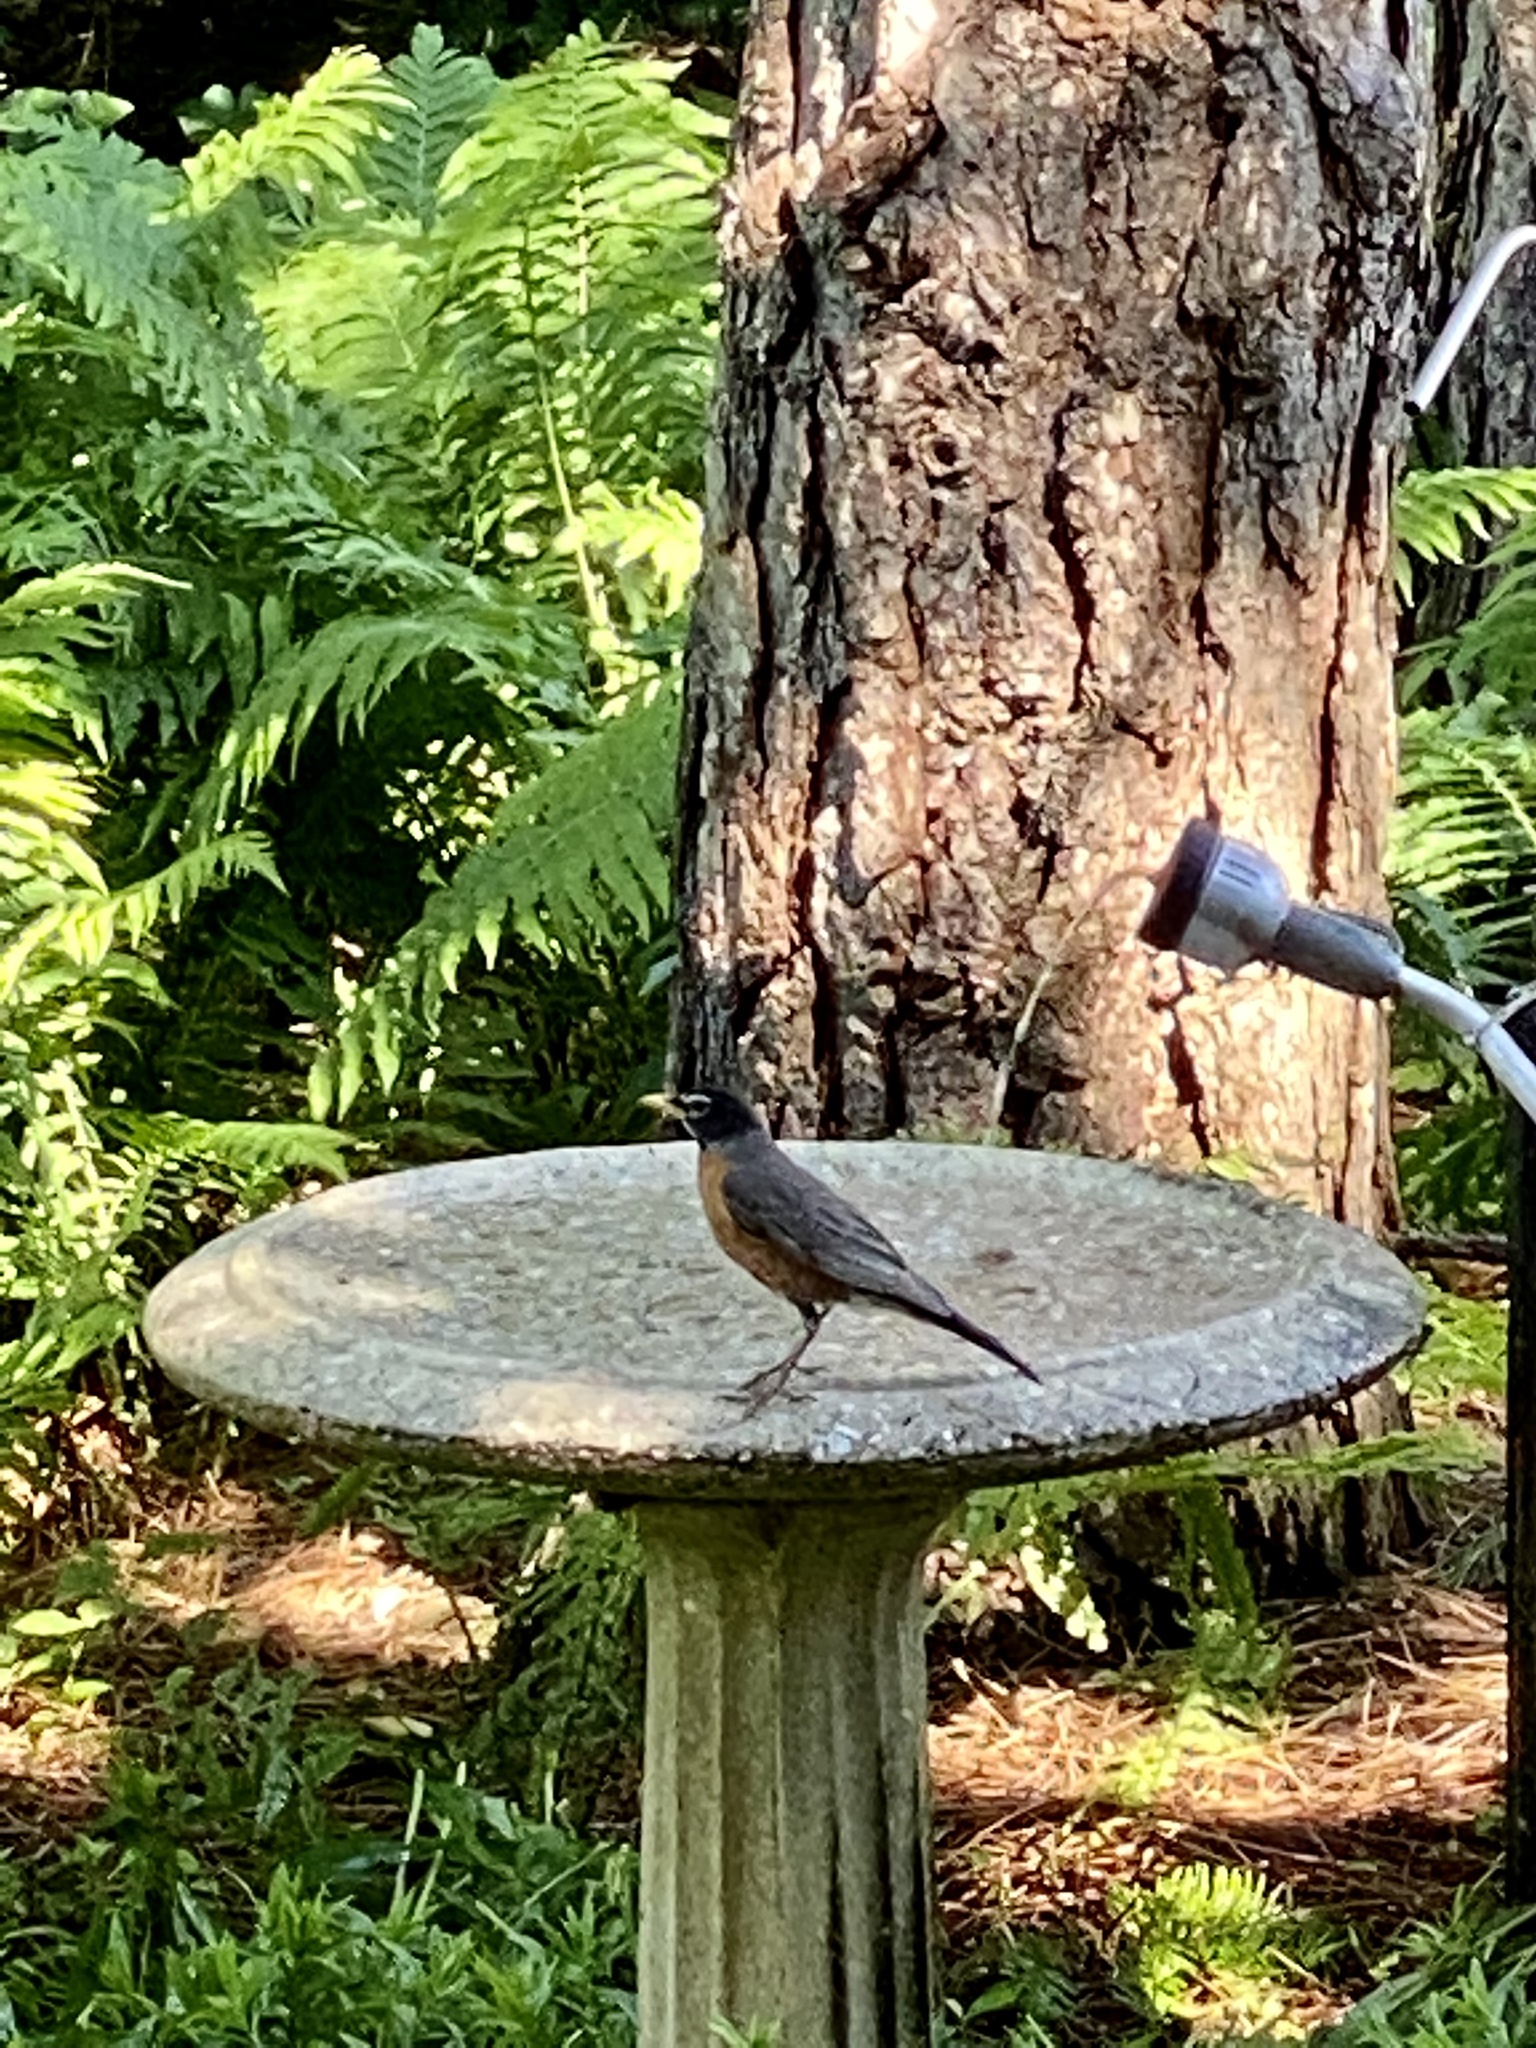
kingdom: Animalia
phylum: Chordata
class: Aves
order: Passeriformes
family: Turdidae
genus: Turdus
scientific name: Turdus migratorius
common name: American robin
